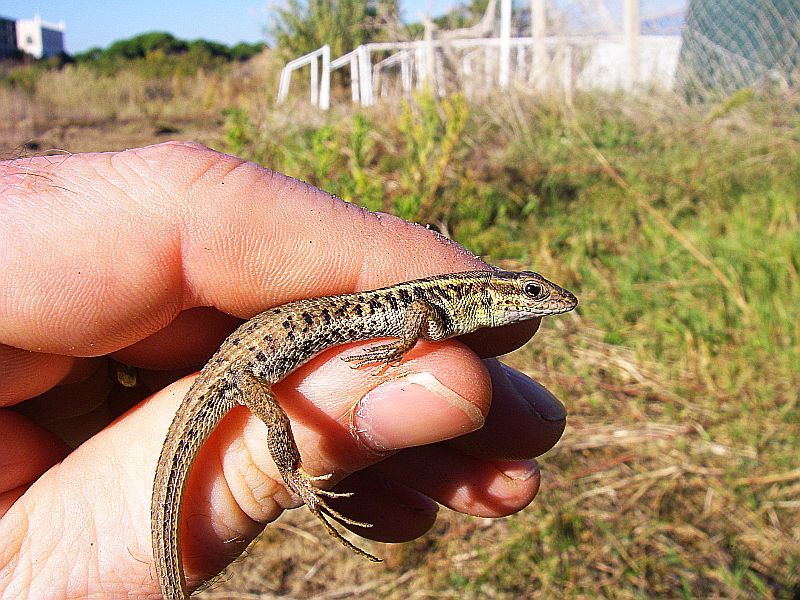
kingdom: Animalia
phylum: Chordata
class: Squamata
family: Lacertidae
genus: Ophisops
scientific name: Ophisops elegans
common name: Snake-eyed lizard
